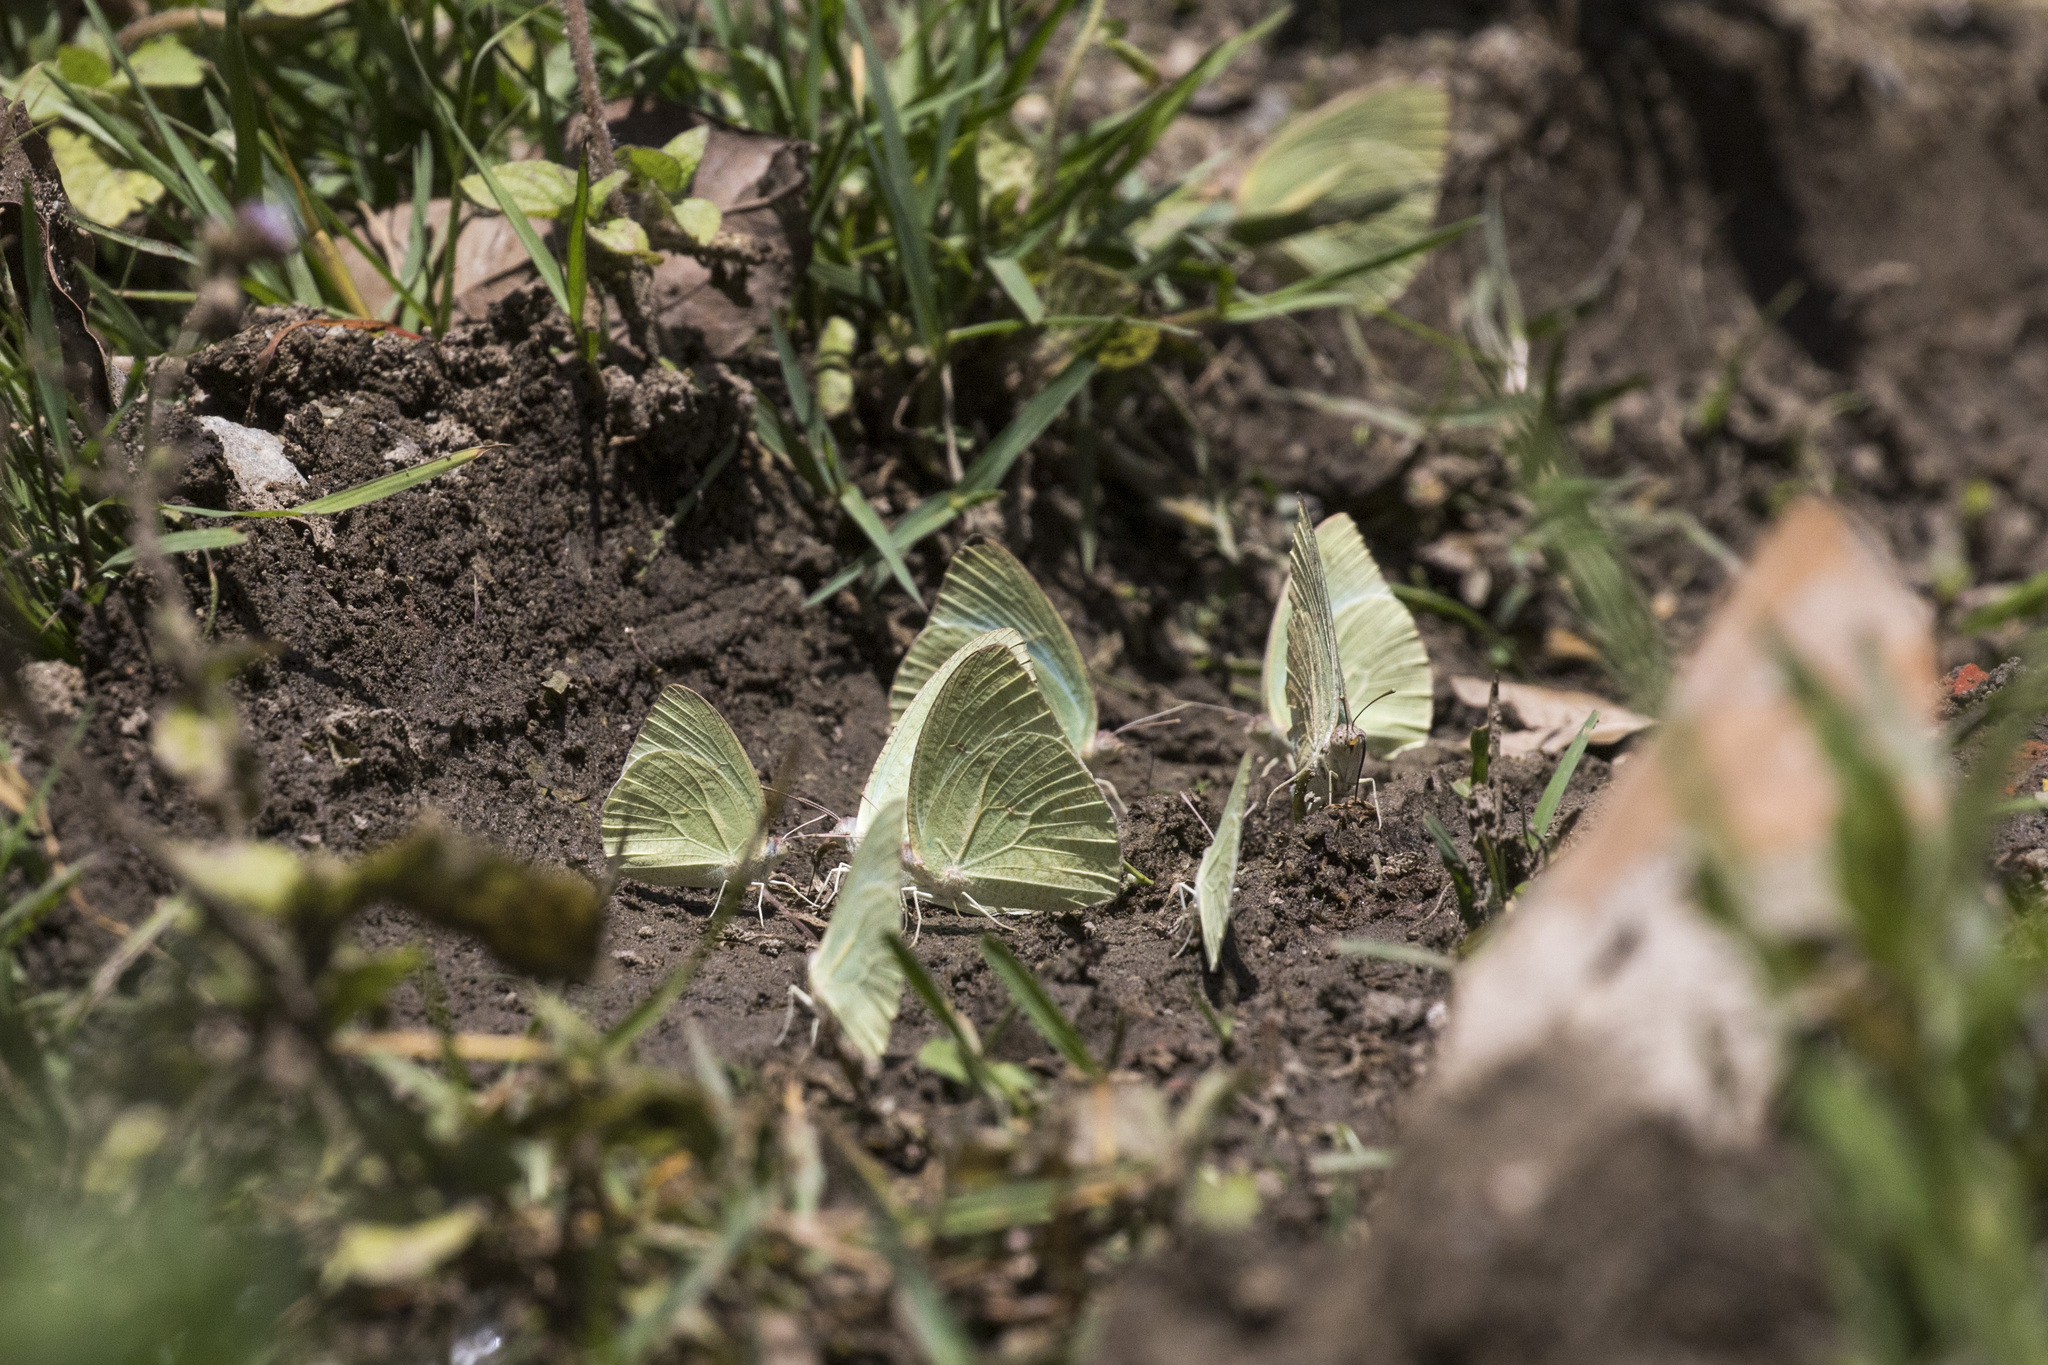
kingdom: Animalia
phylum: Arthropoda
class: Insecta
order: Lepidoptera
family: Pieridae
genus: Catopsilia
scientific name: Catopsilia pyranthe
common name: Mottled emigrant
